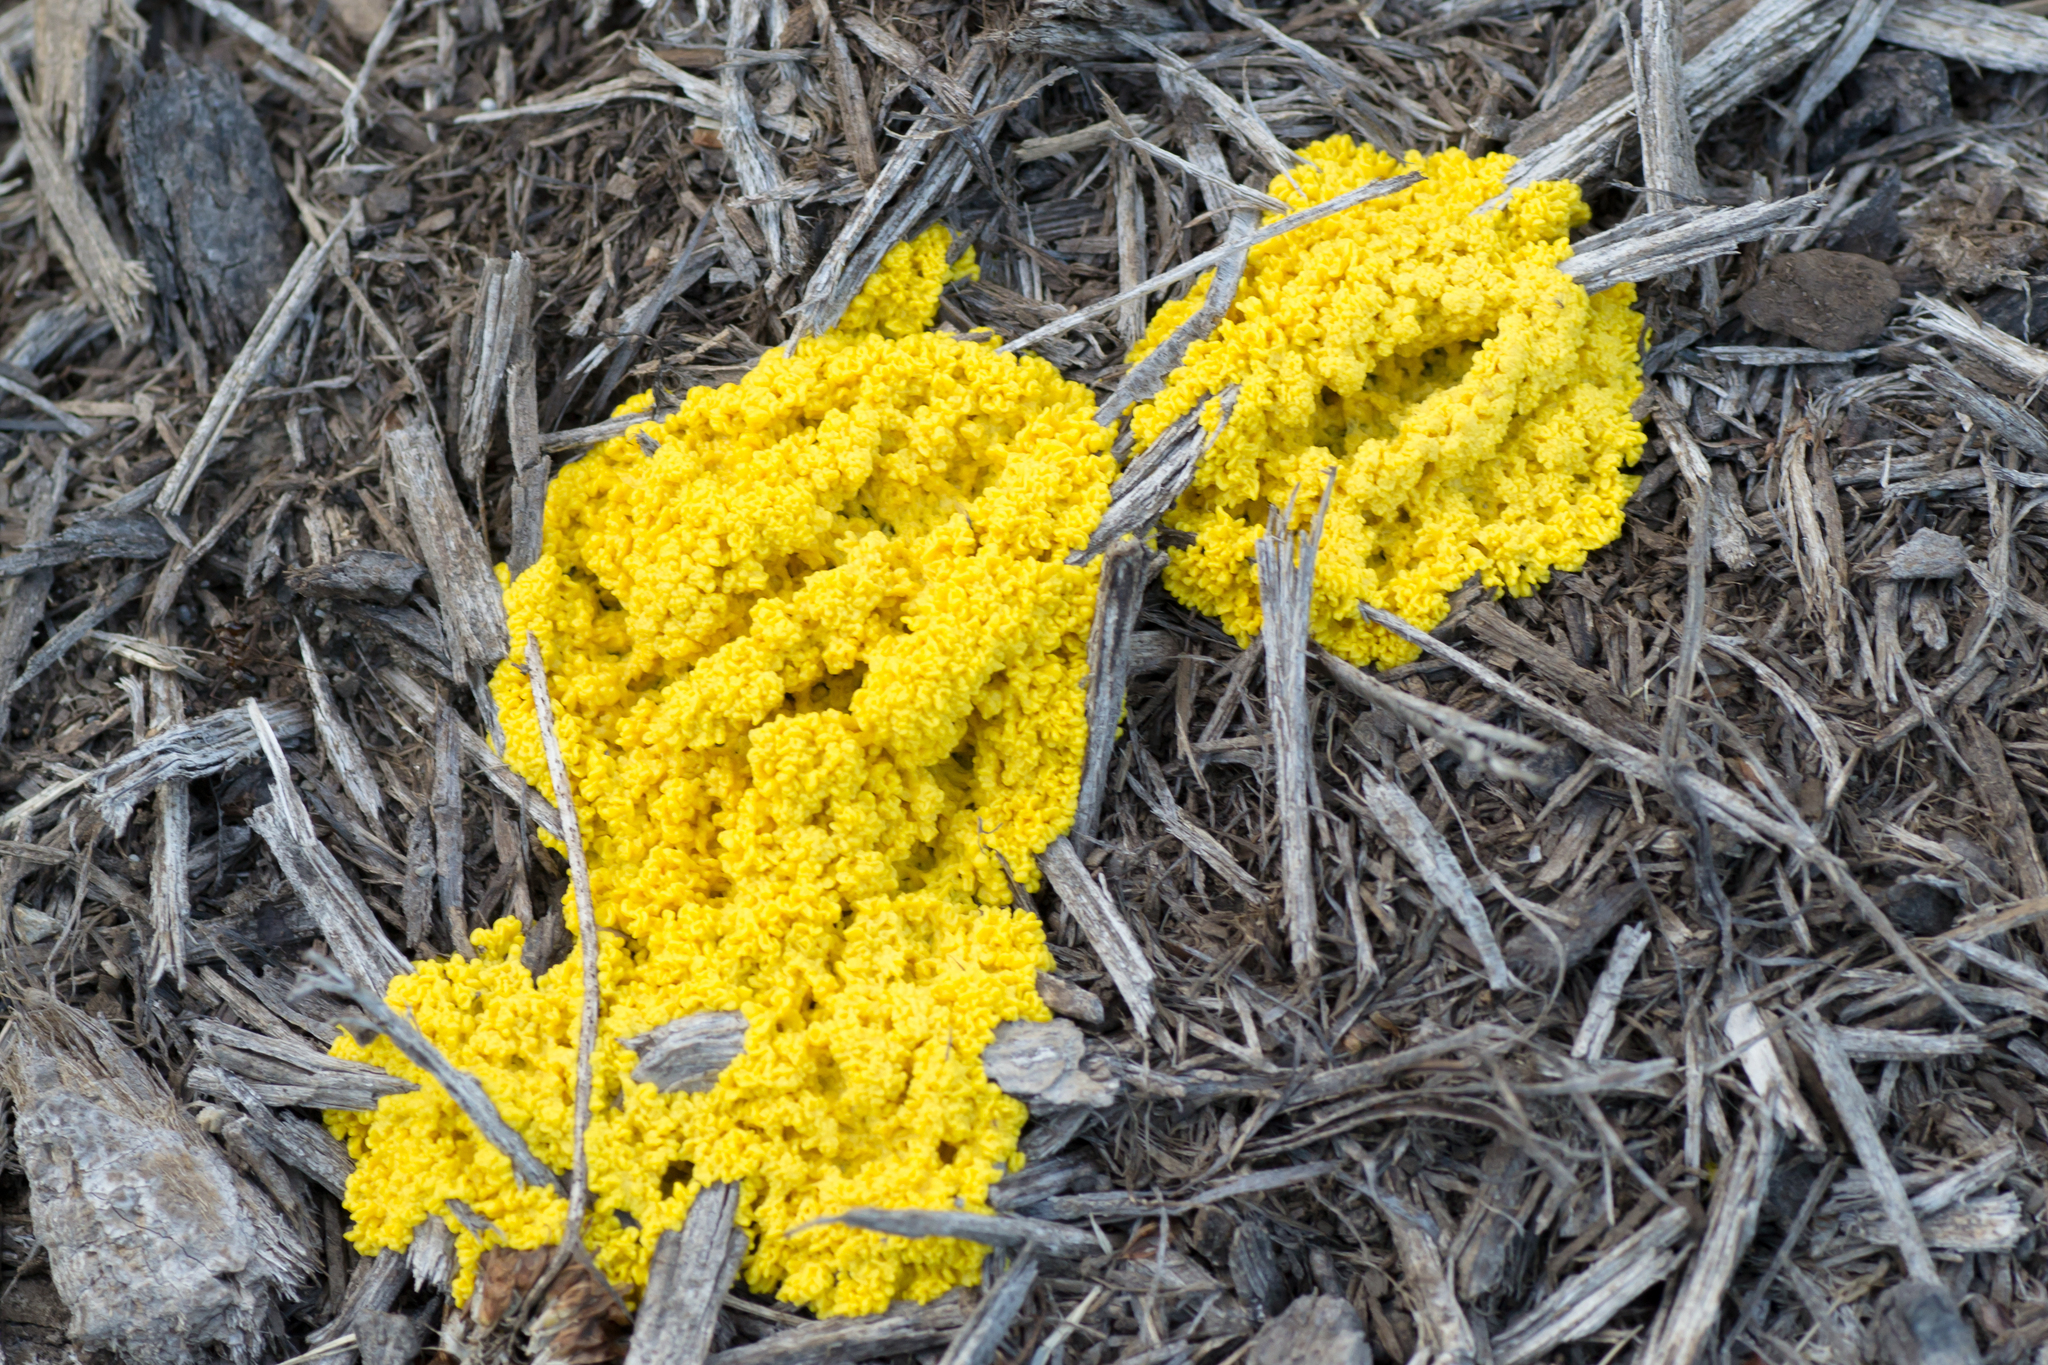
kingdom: Protozoa
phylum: Mycetozoa
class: Myxomycetes
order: Physarales
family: Physaraceae
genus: Fuligo
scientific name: Fuligo septica
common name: Dog vomit slime mold
